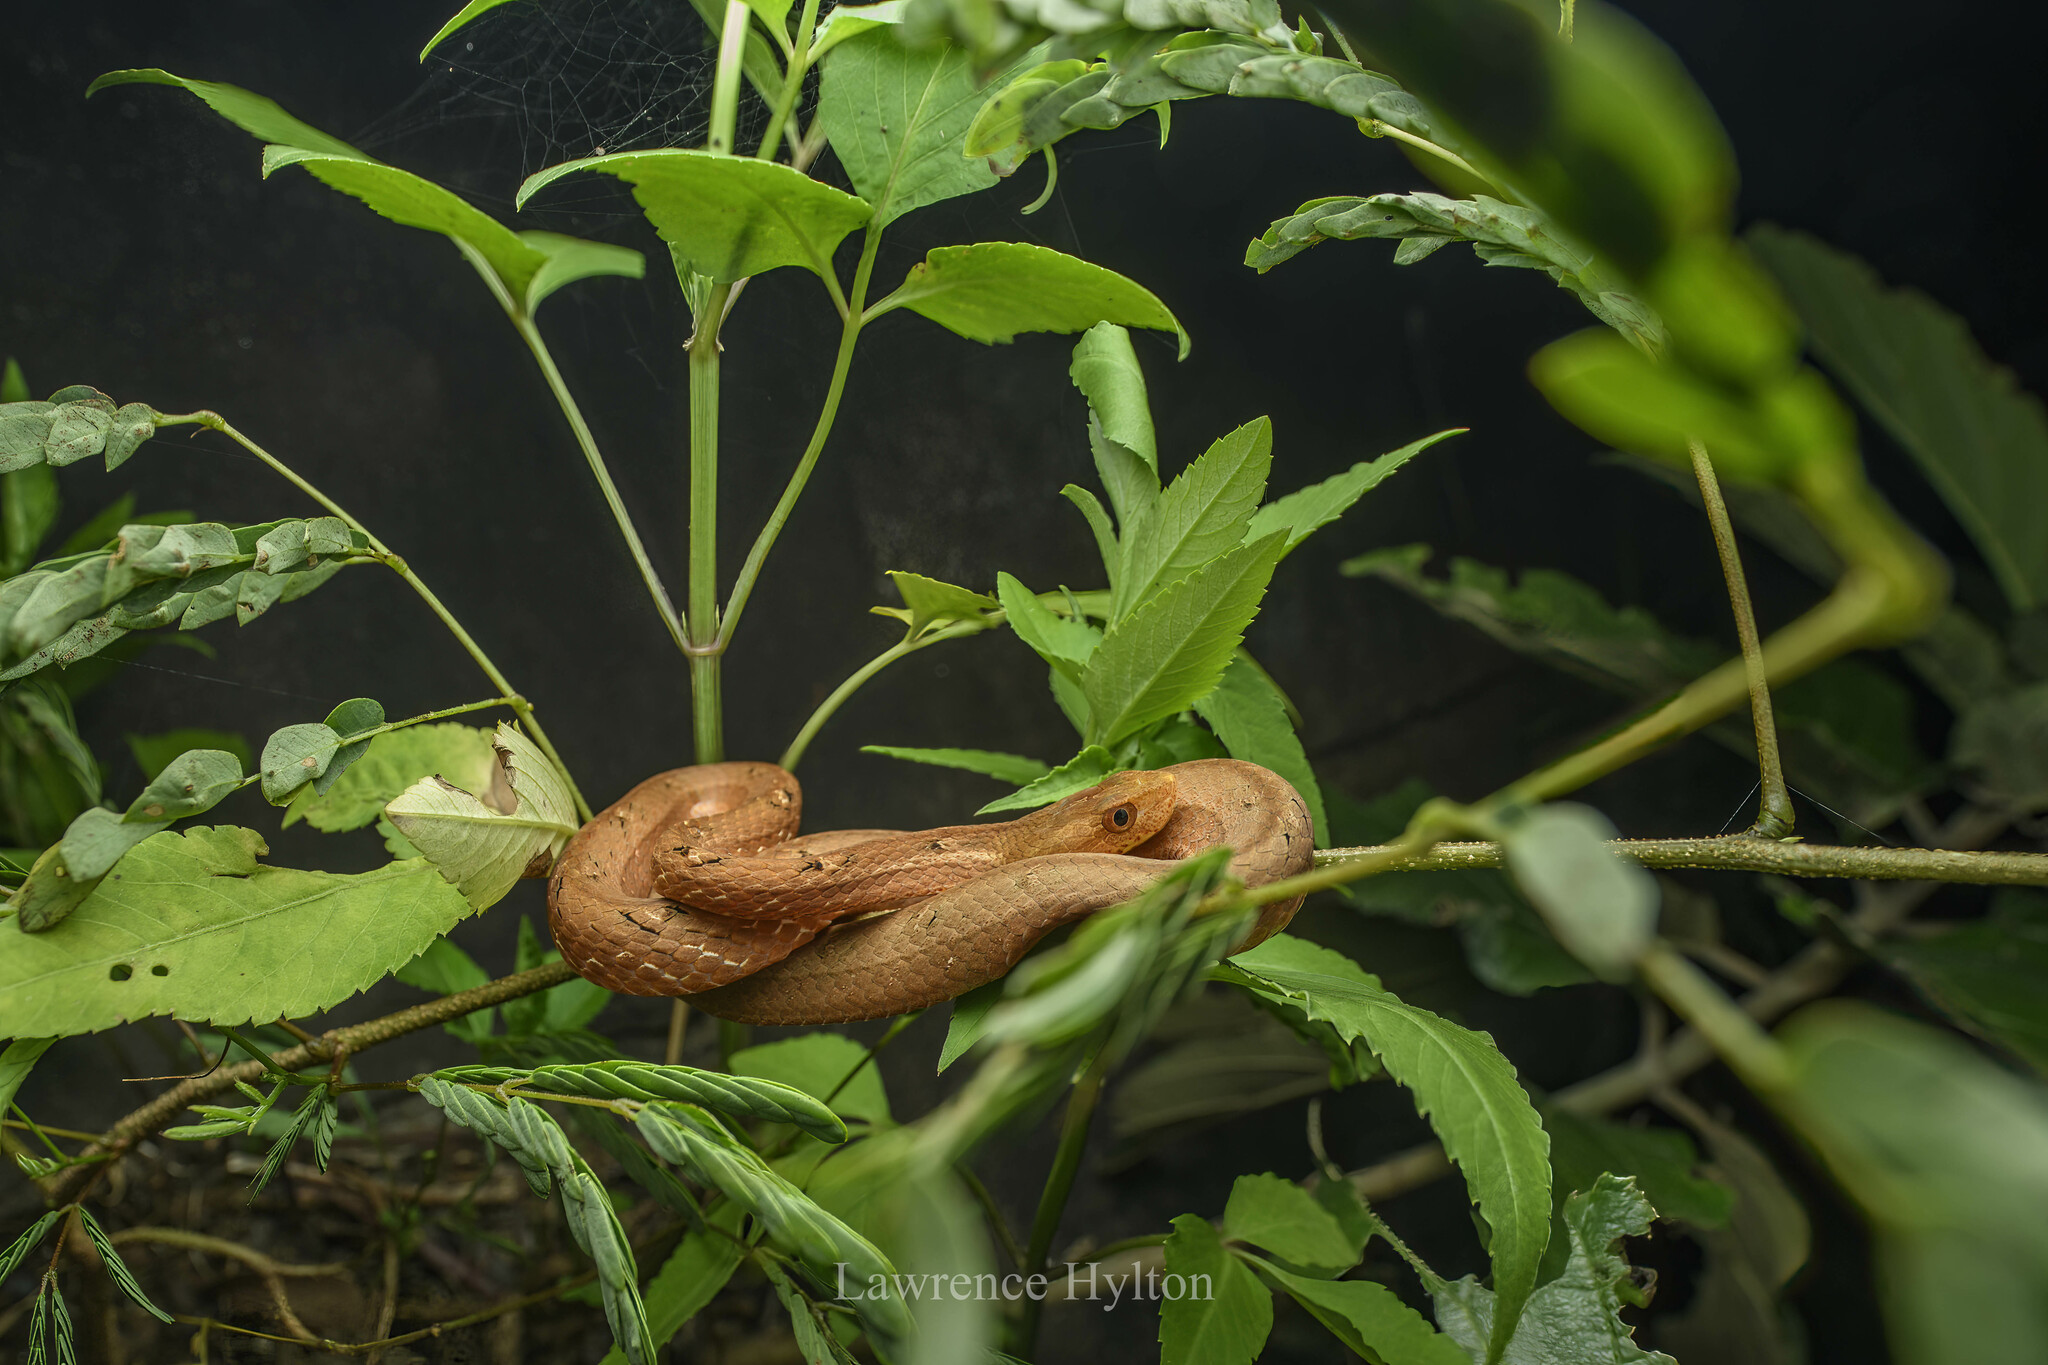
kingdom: Animalia
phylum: Chordata
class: Squamata
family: Pseudaspididae
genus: Psammodynastes
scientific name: Psammodynastes pulverulentus
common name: Common mock viper
